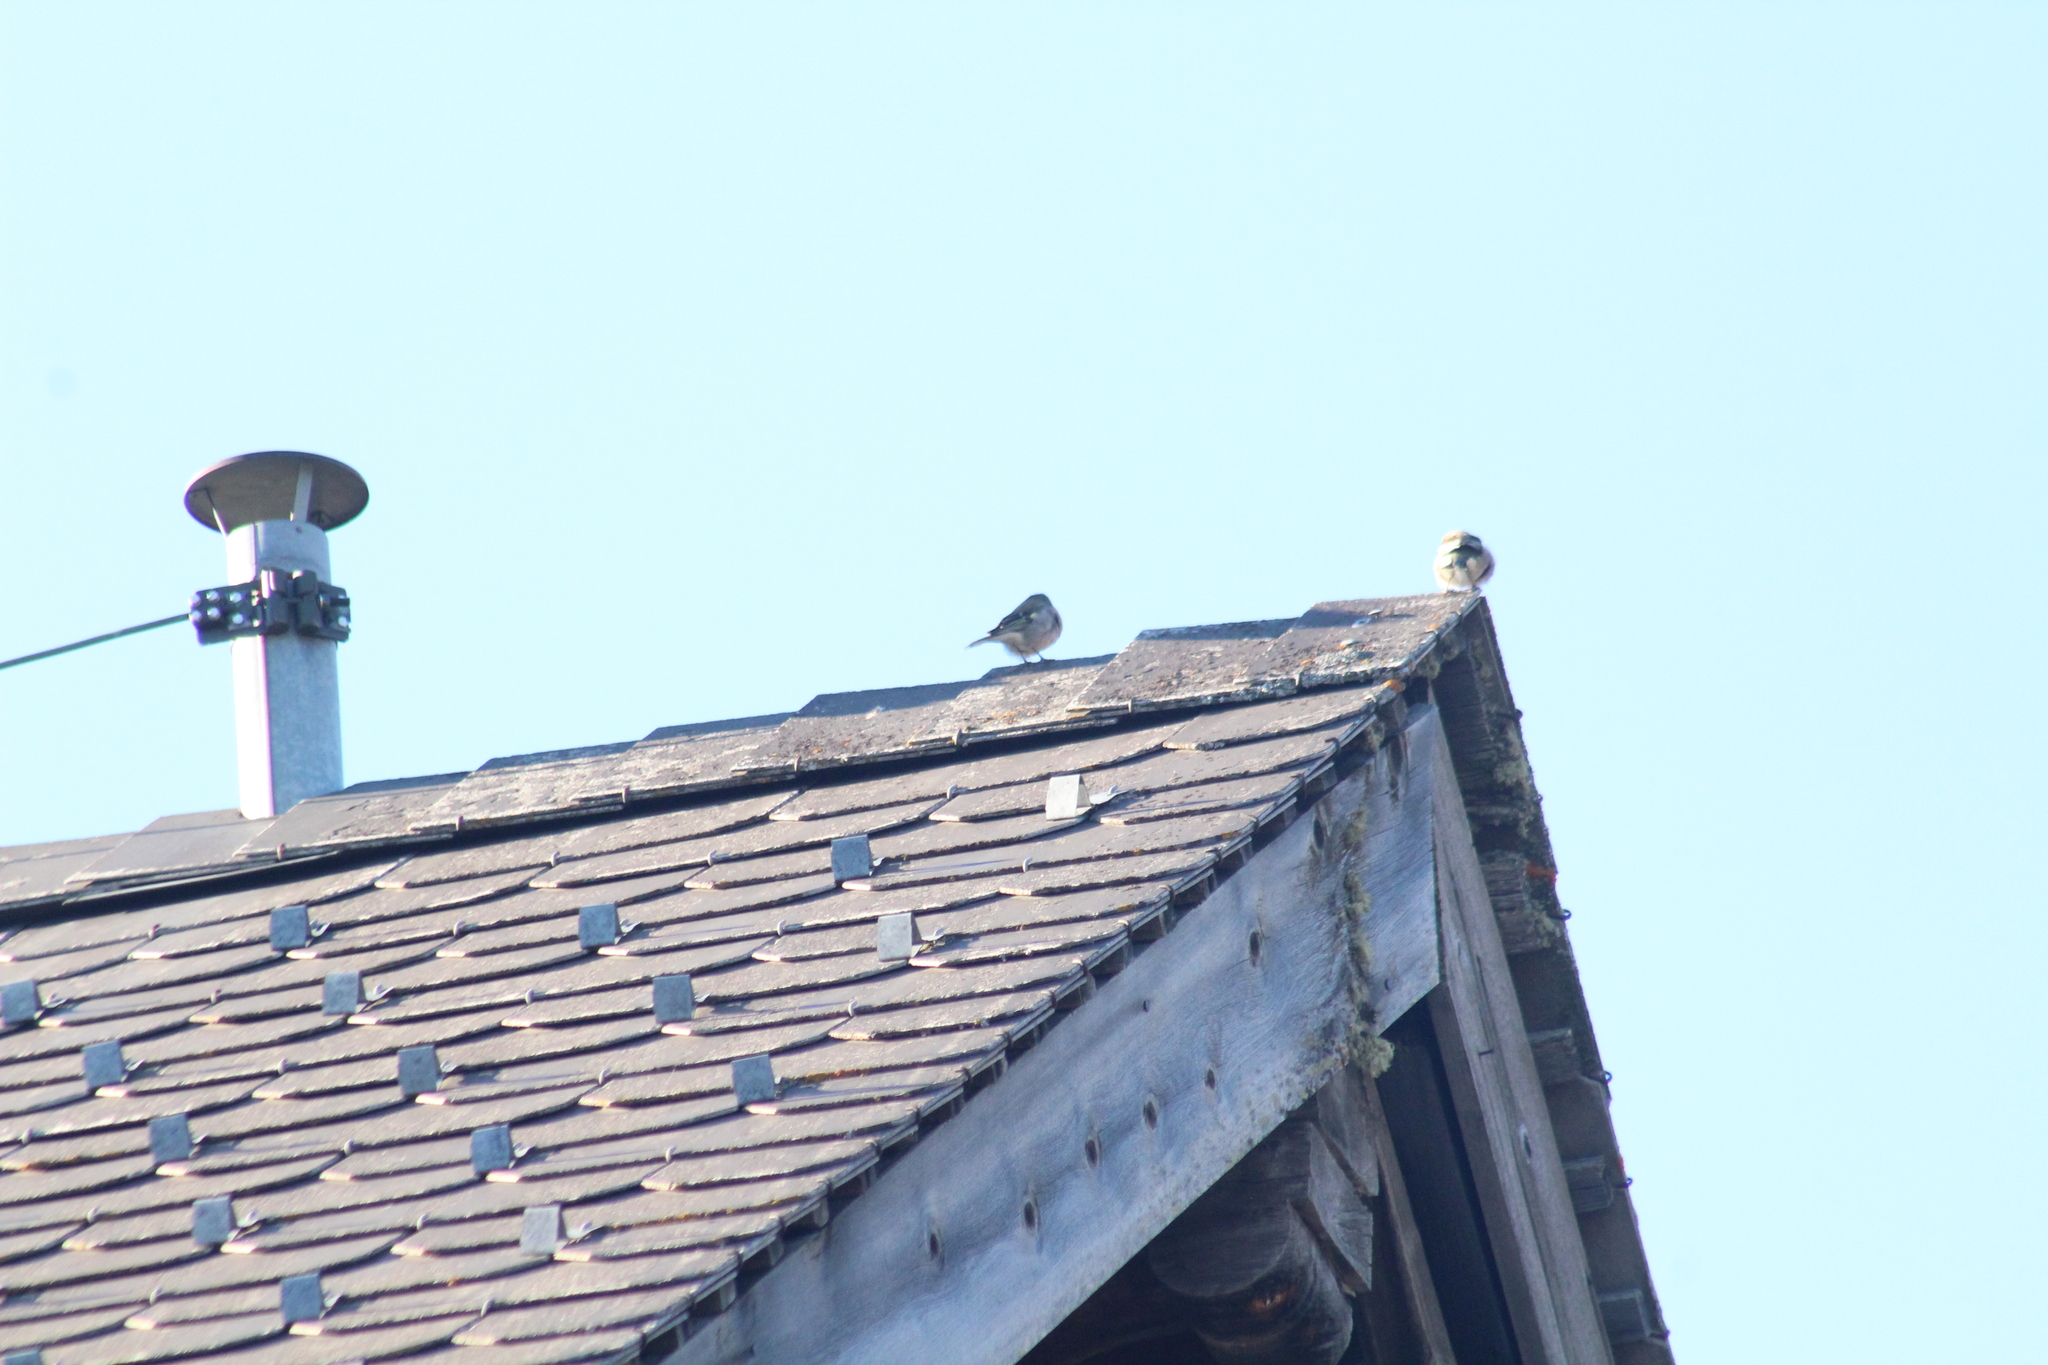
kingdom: Animalia
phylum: Chordata
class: Aves
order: Passeriformes
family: Fringillidae
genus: Fringilla
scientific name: Fringilla coelebs
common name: Common chaffinch
